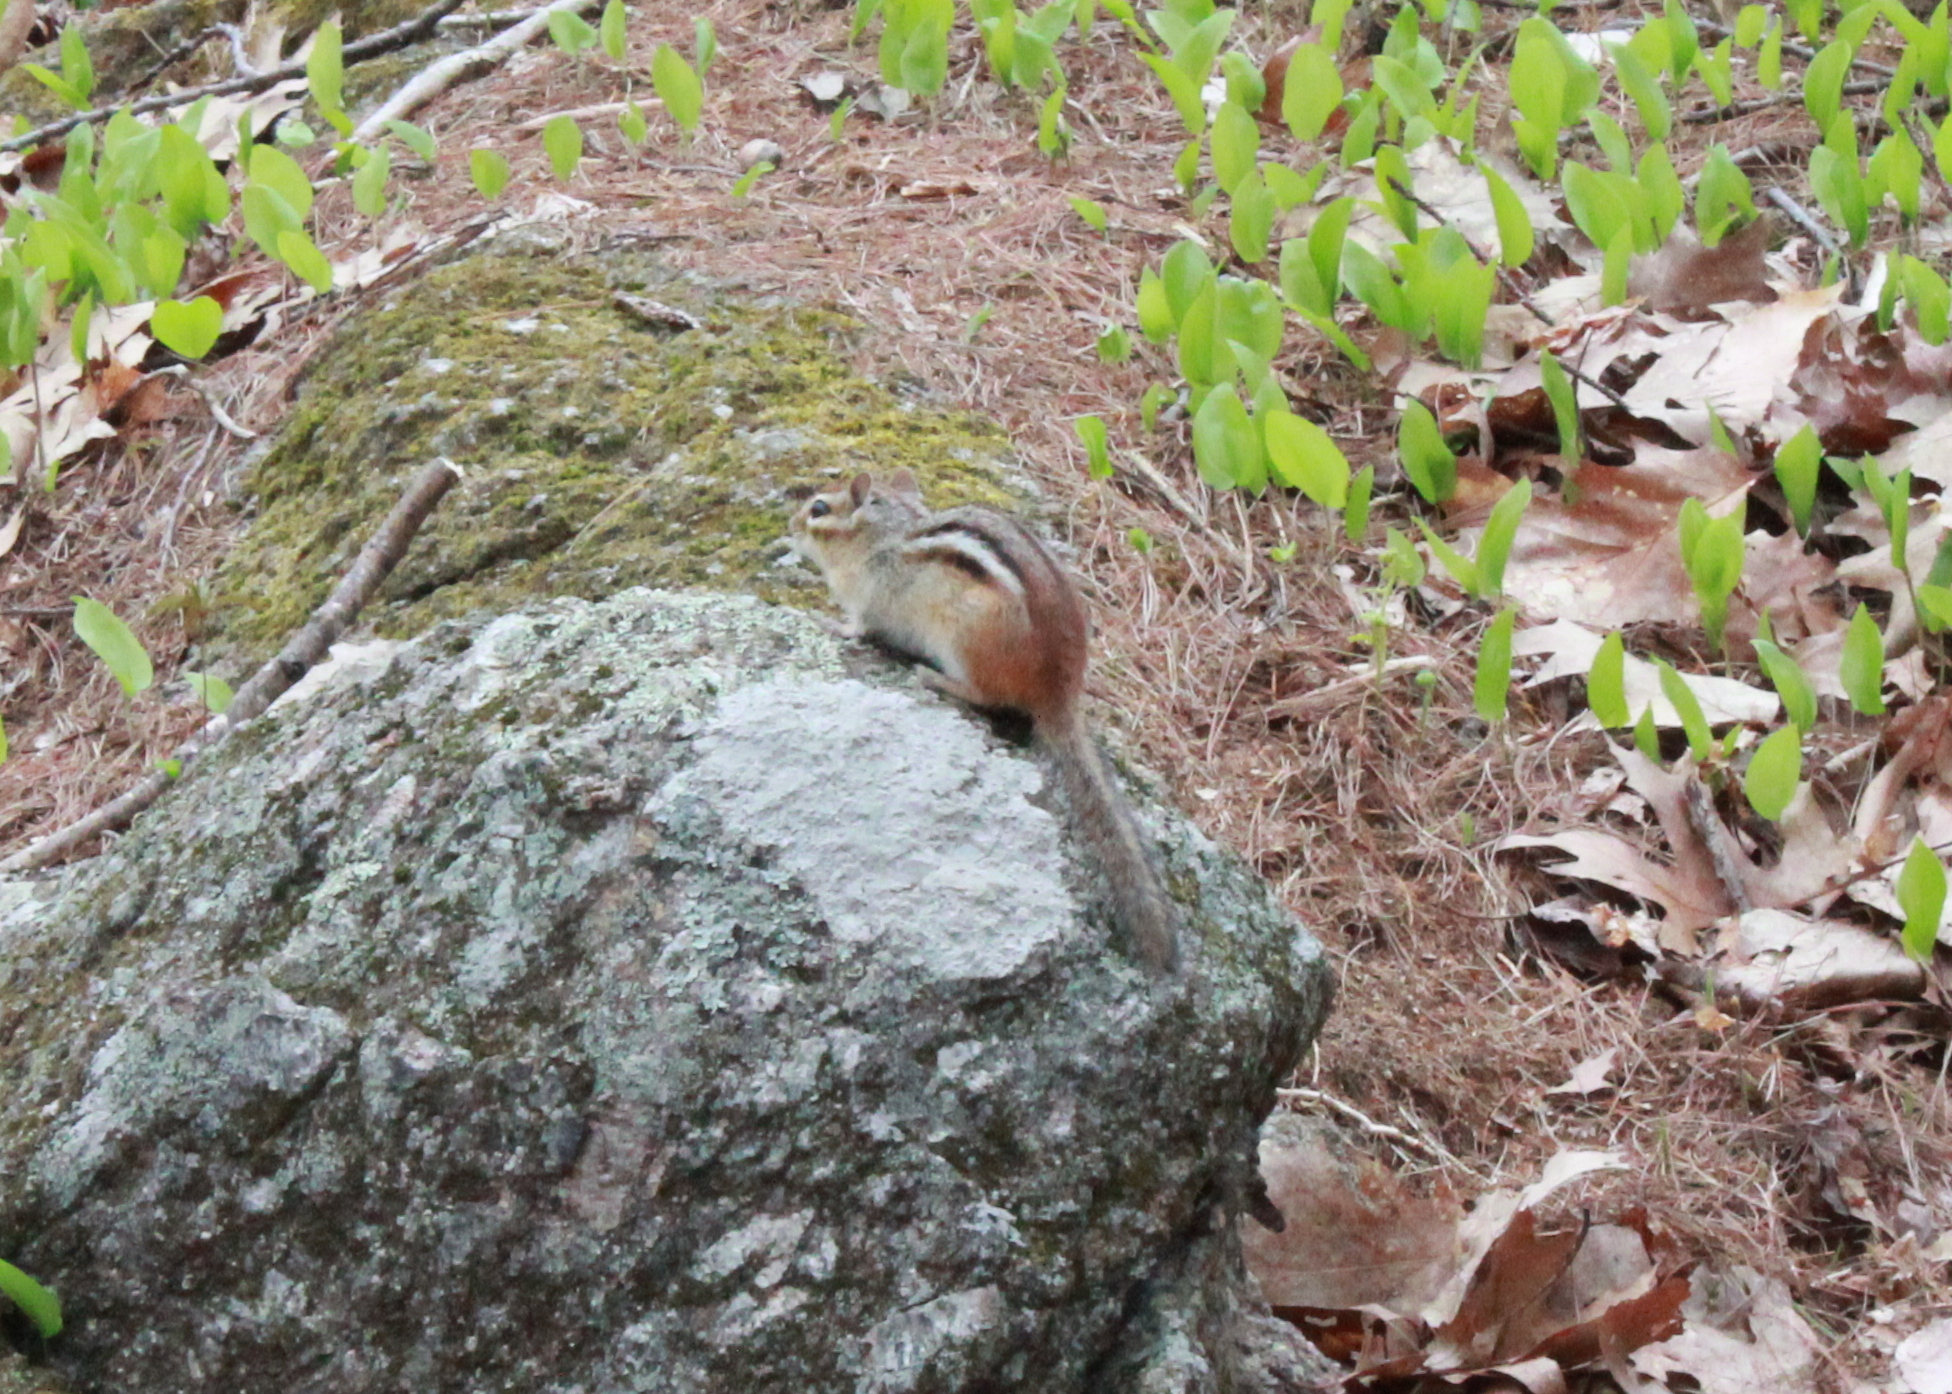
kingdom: Animalia
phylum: Chordata
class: Mammalia
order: Rodentia
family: Sciuridae
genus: Tamias
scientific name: Tamias striatus
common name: Eastern chipmunk
